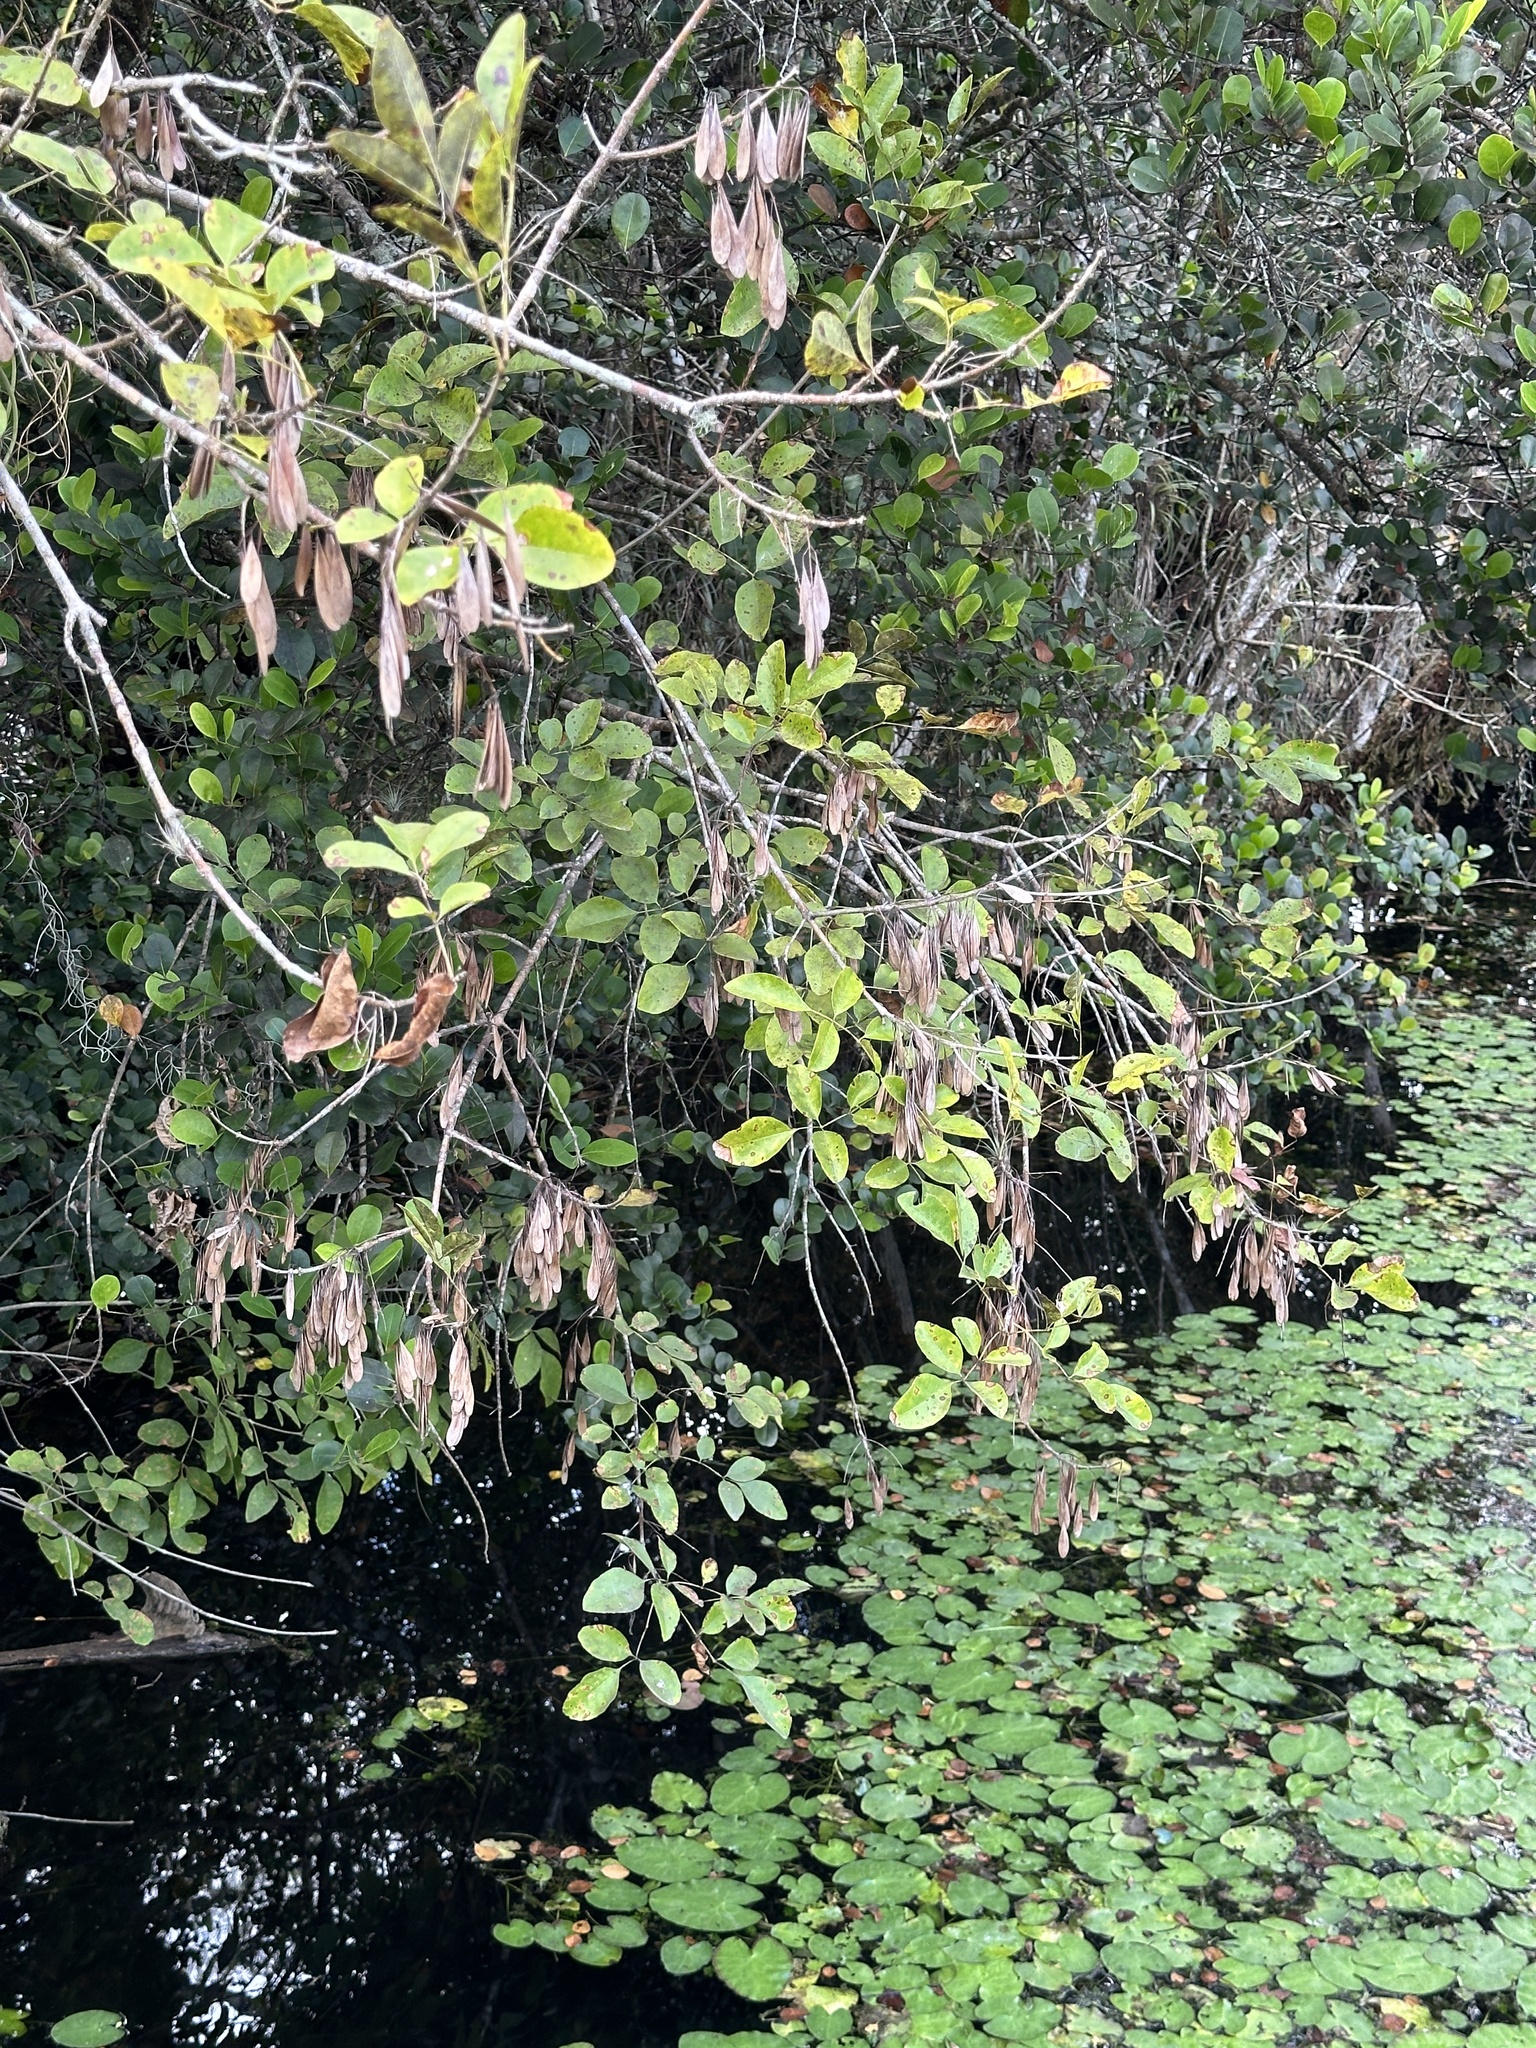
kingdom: Plantae
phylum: Tracheophyta
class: Magnoliopsida
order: Lamiales
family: Oleaceae
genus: Fraxinus
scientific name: Fraxinus caroliniana
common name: Carolina ash
